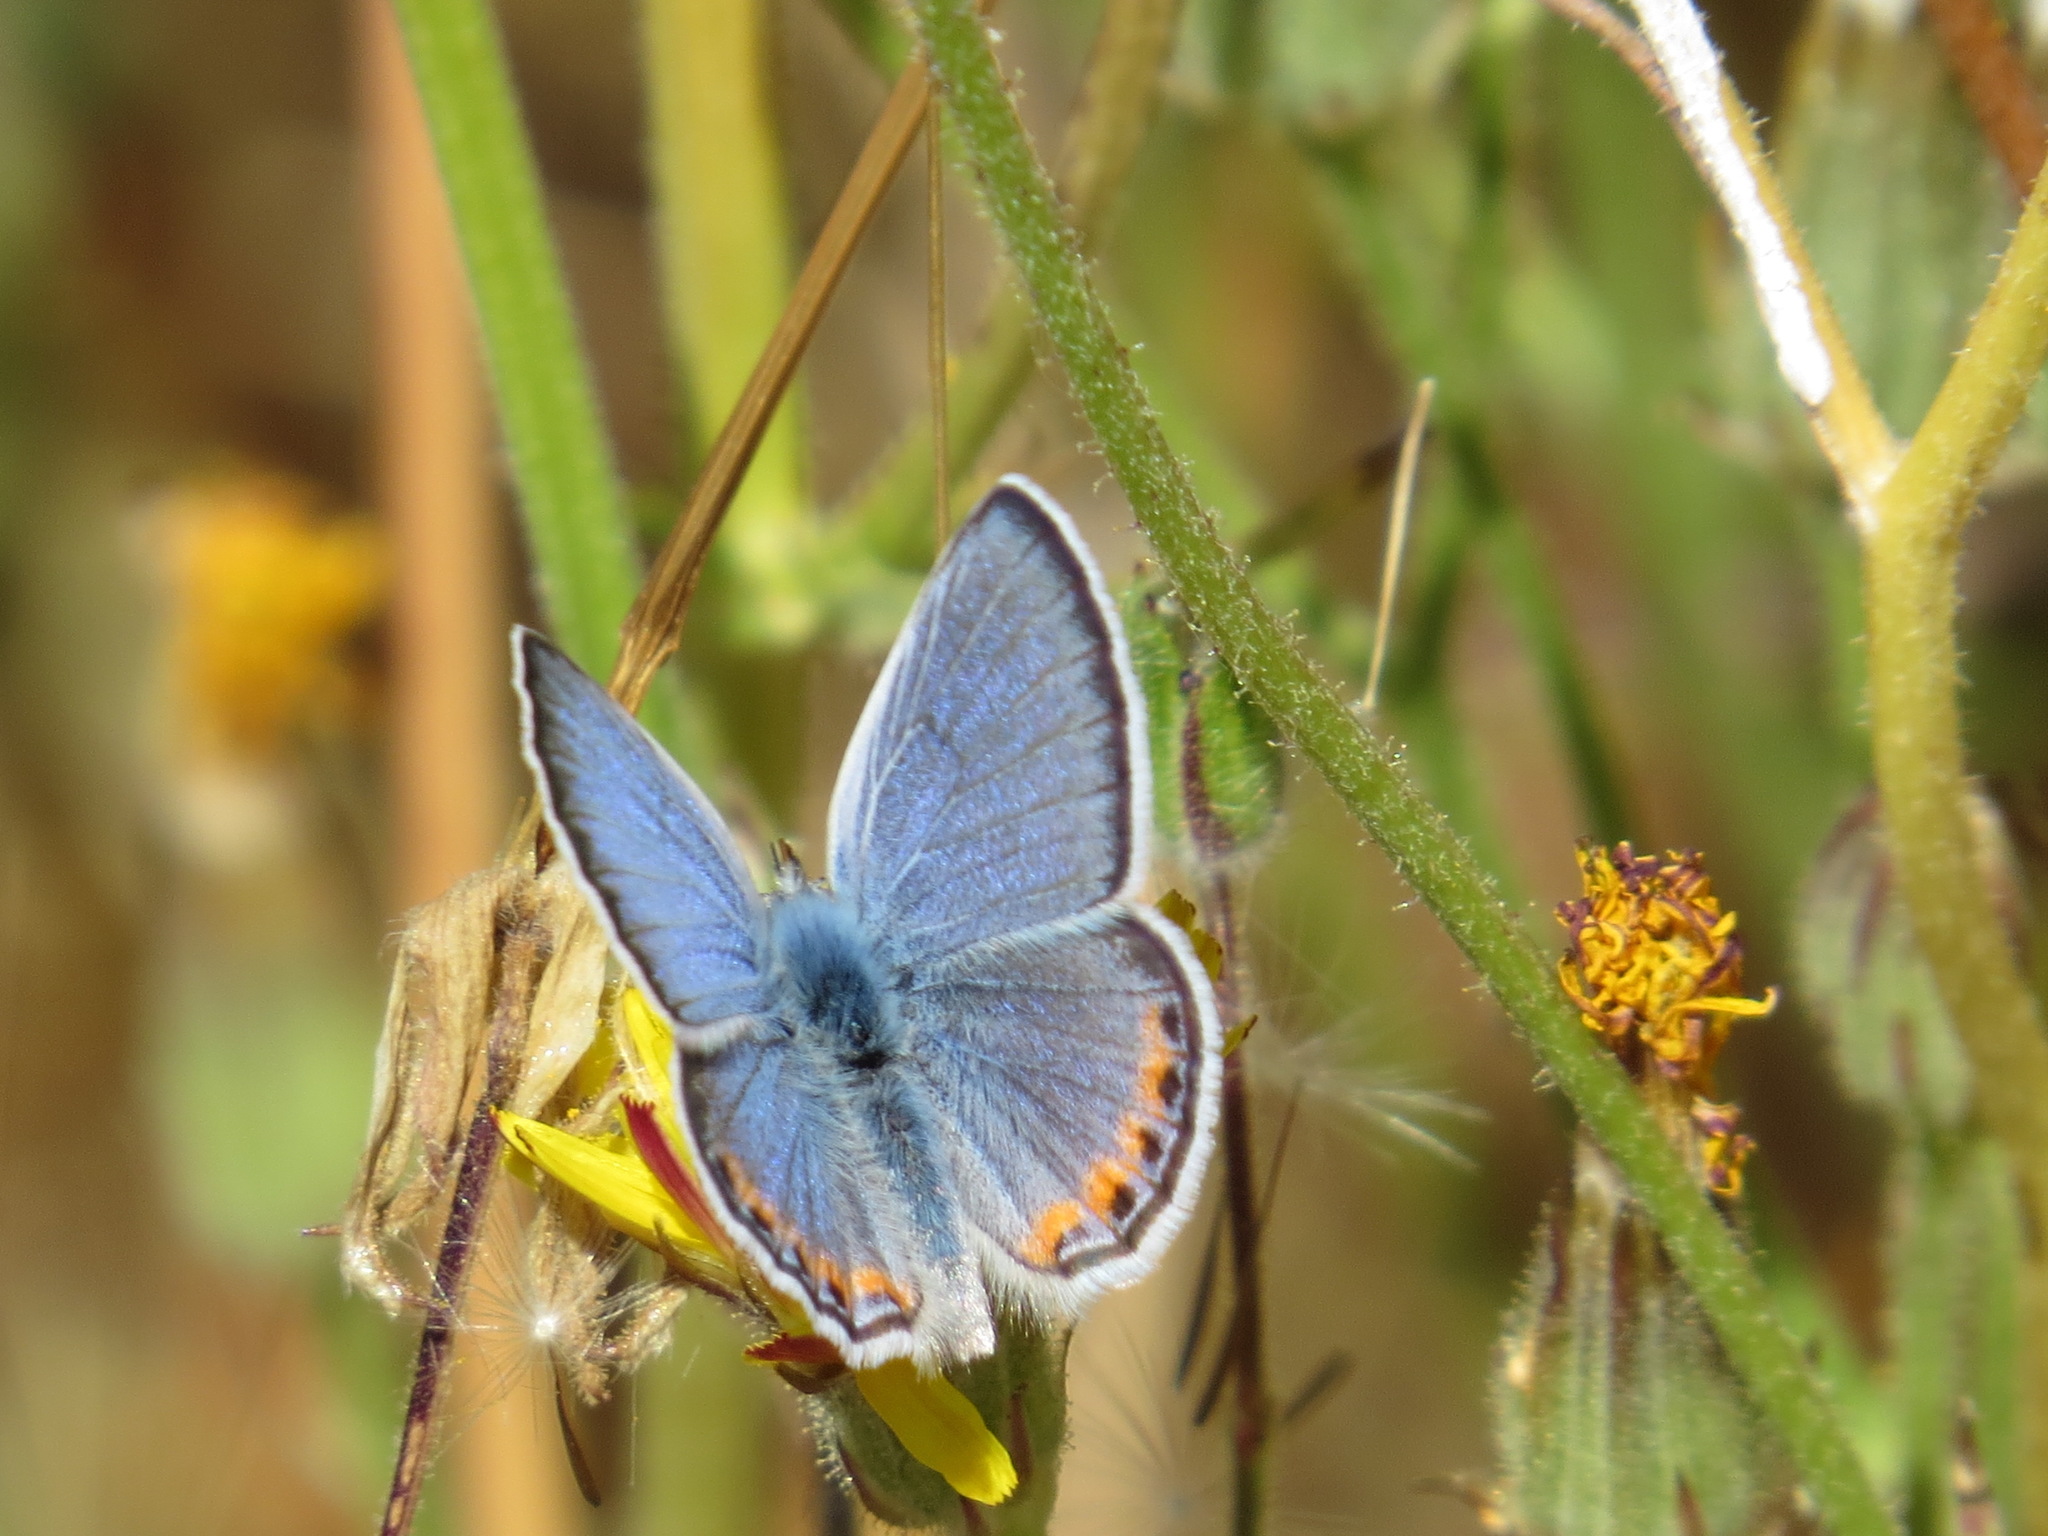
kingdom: Animalia
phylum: Arthropoda
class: Insecta
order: Lepidoptera
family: Lycaenidae
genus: Icaricia
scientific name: Icaricia acmon
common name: Acmon blue
